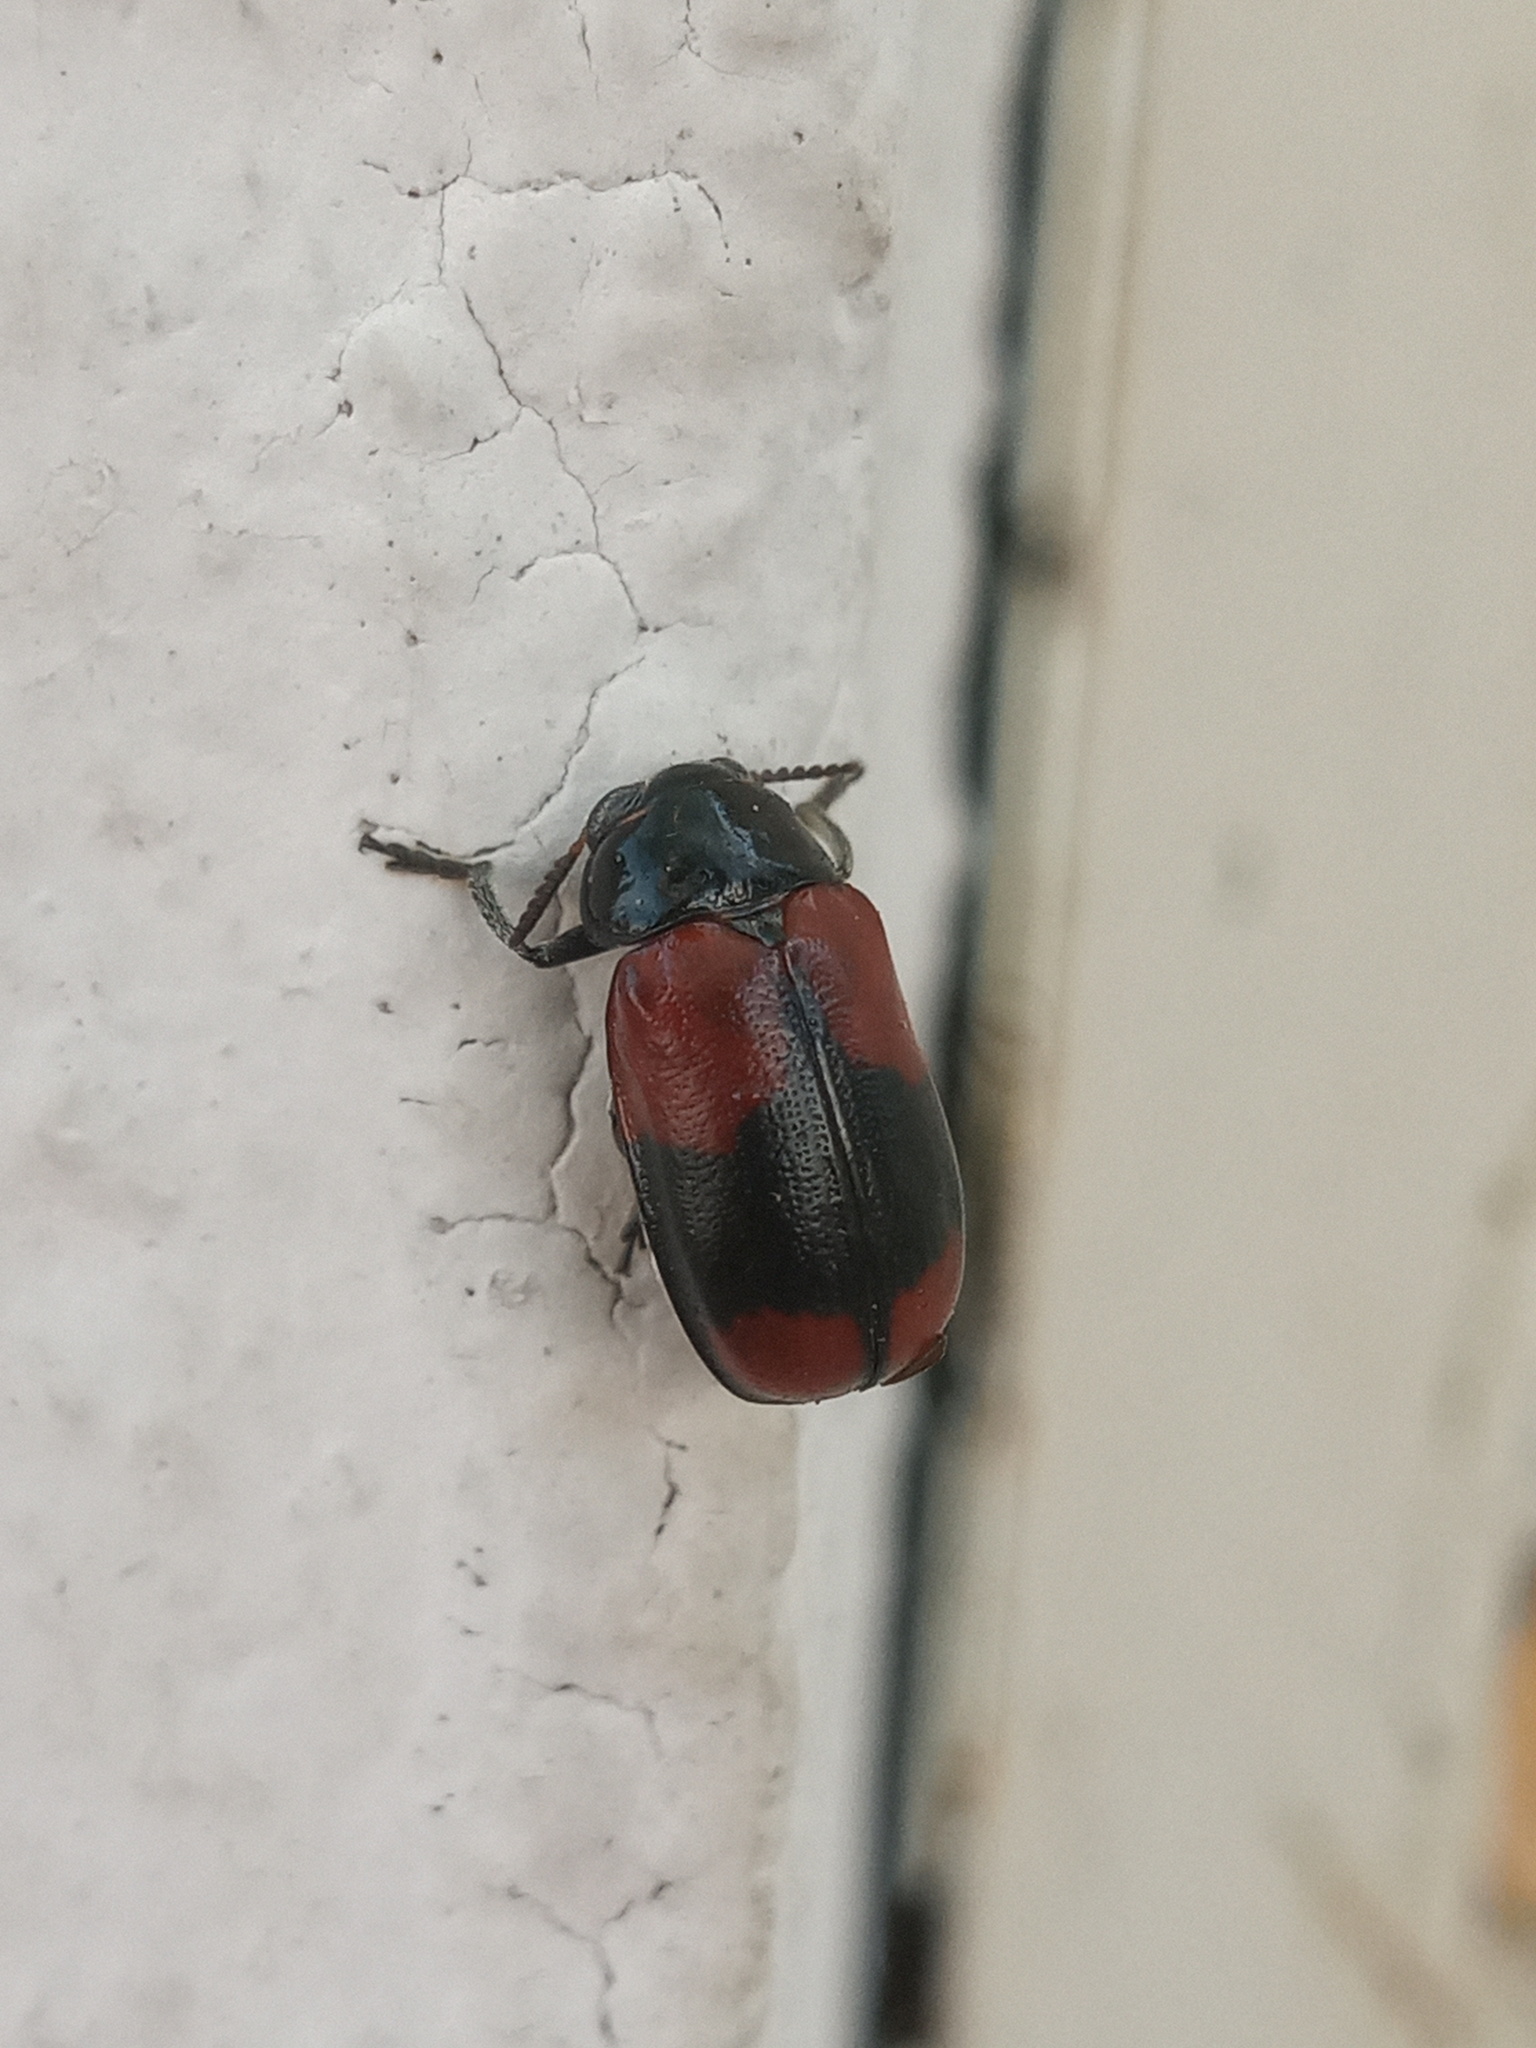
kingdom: Animalia
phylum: Arthropoda
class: Insecta
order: Coleoptera
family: Chrysomelidae
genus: Anomoea
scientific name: Anomoea rufifrons
